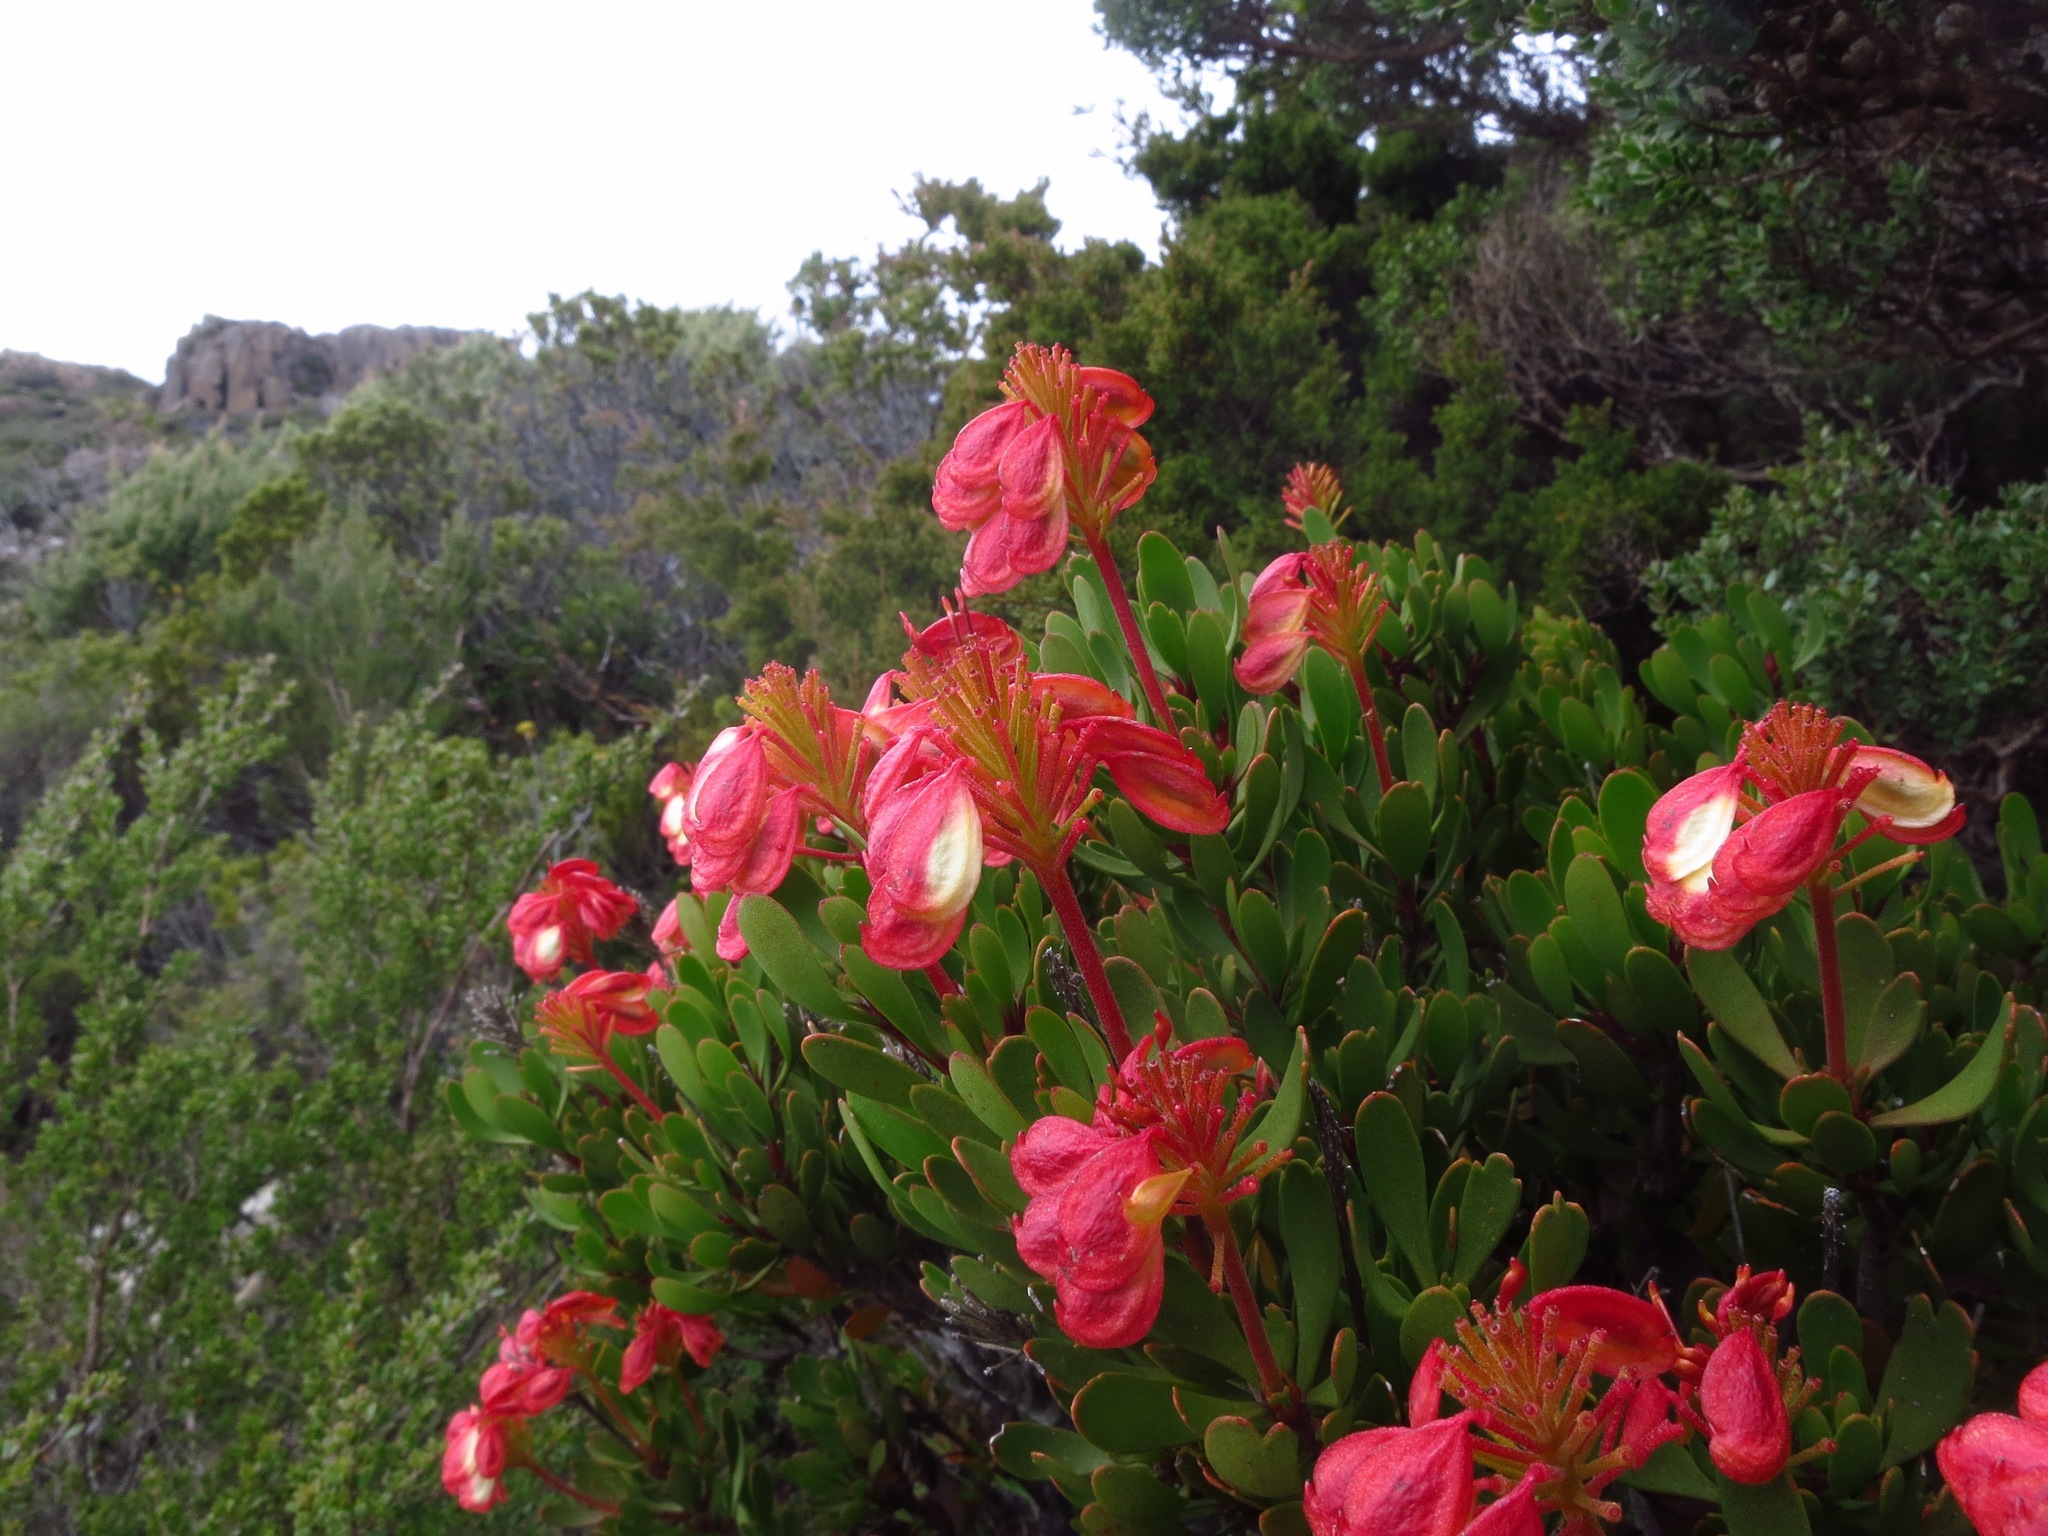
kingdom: Plantae
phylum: Tracheophyta
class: Magnoliopsida
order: Proteales
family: Proteaceae
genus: Bellendena
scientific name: Bellendena montana
